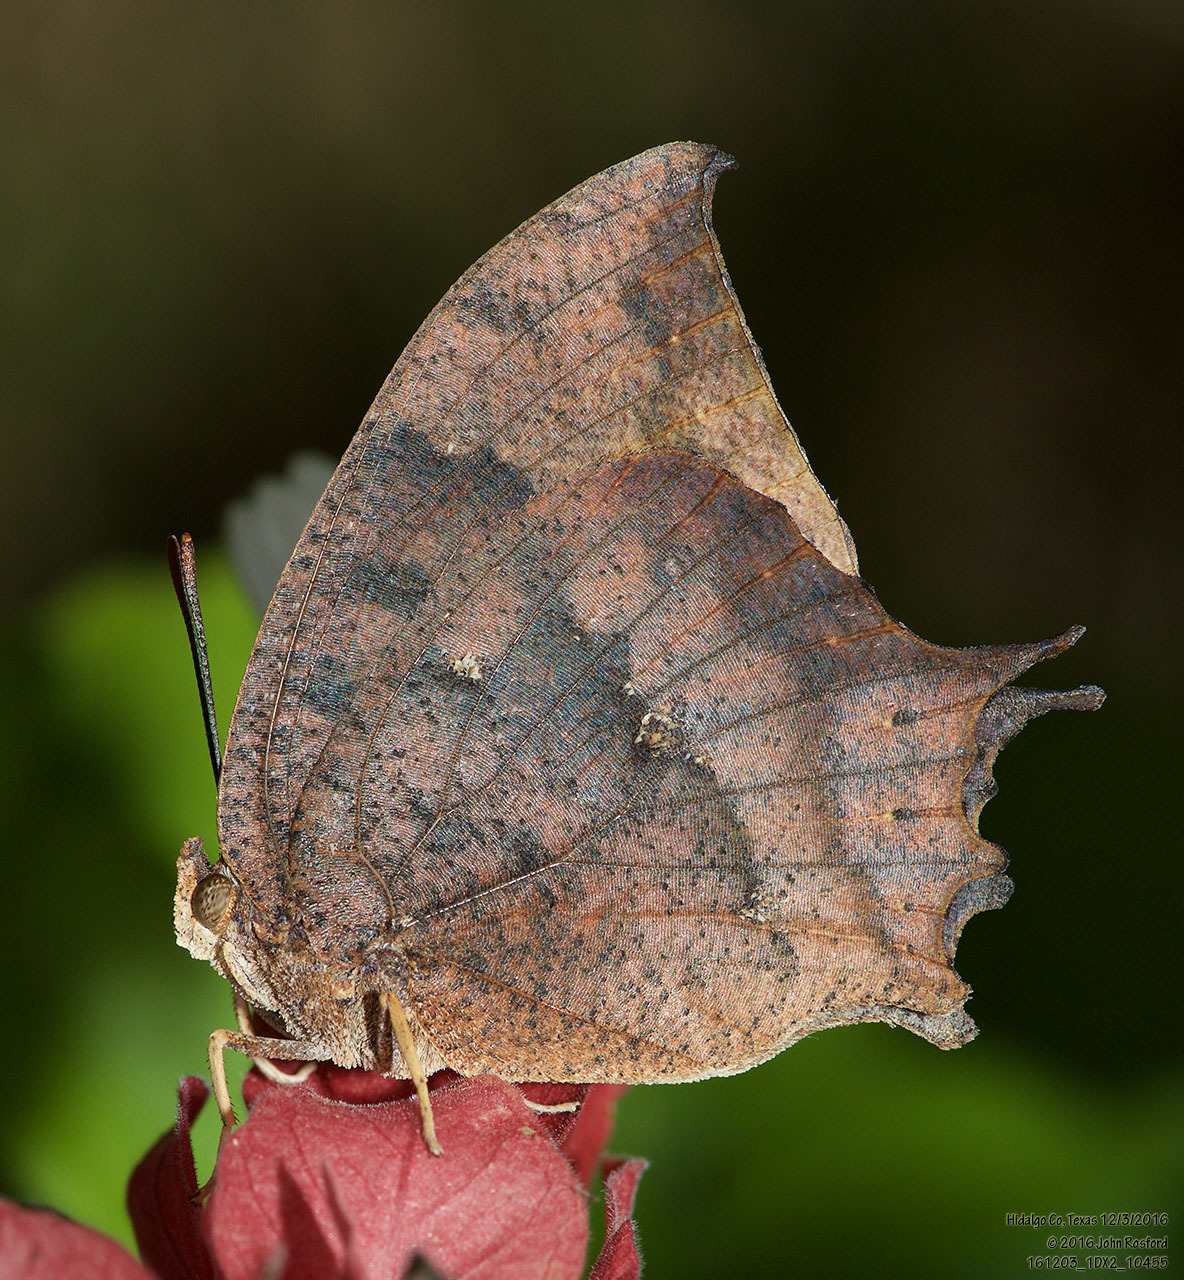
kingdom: Animalia
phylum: Arthropoda
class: Insecta
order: Lepidoptera
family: Nymphalidae
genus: Anaea
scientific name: Anaea aidea
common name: Tropical leafwing
